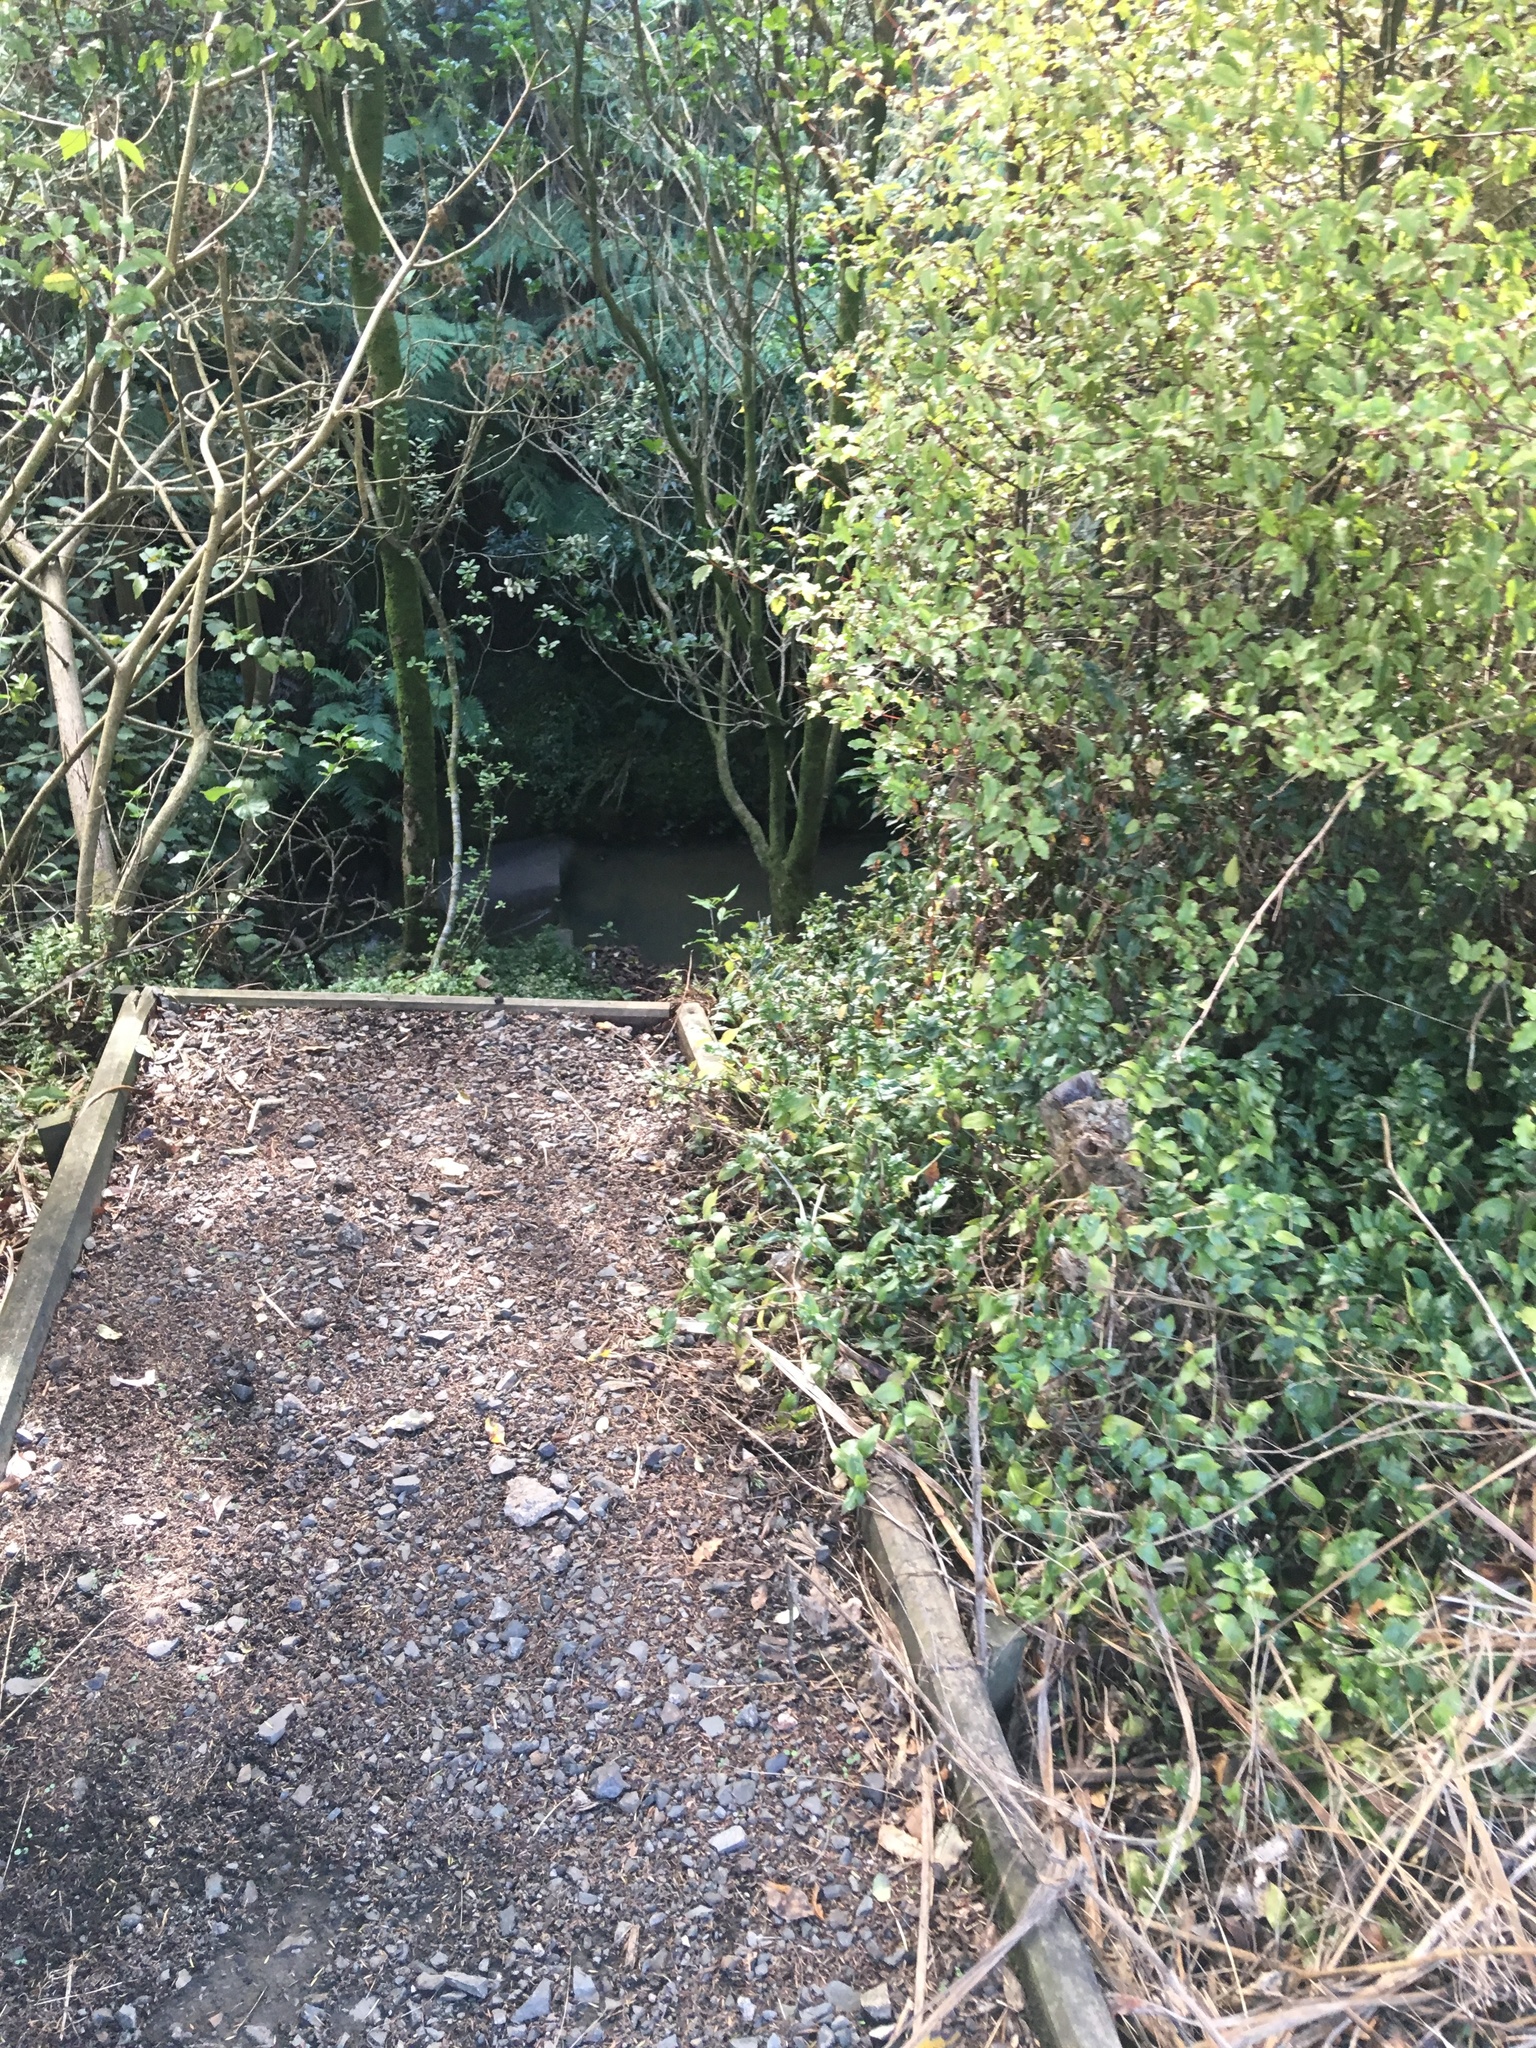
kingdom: Plantae
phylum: Tracheophyta
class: Liliopsida
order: Commelinales
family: Commelinaceae
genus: Tradescantia
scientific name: Tradescantia fluminensis
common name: Wandering-jew
